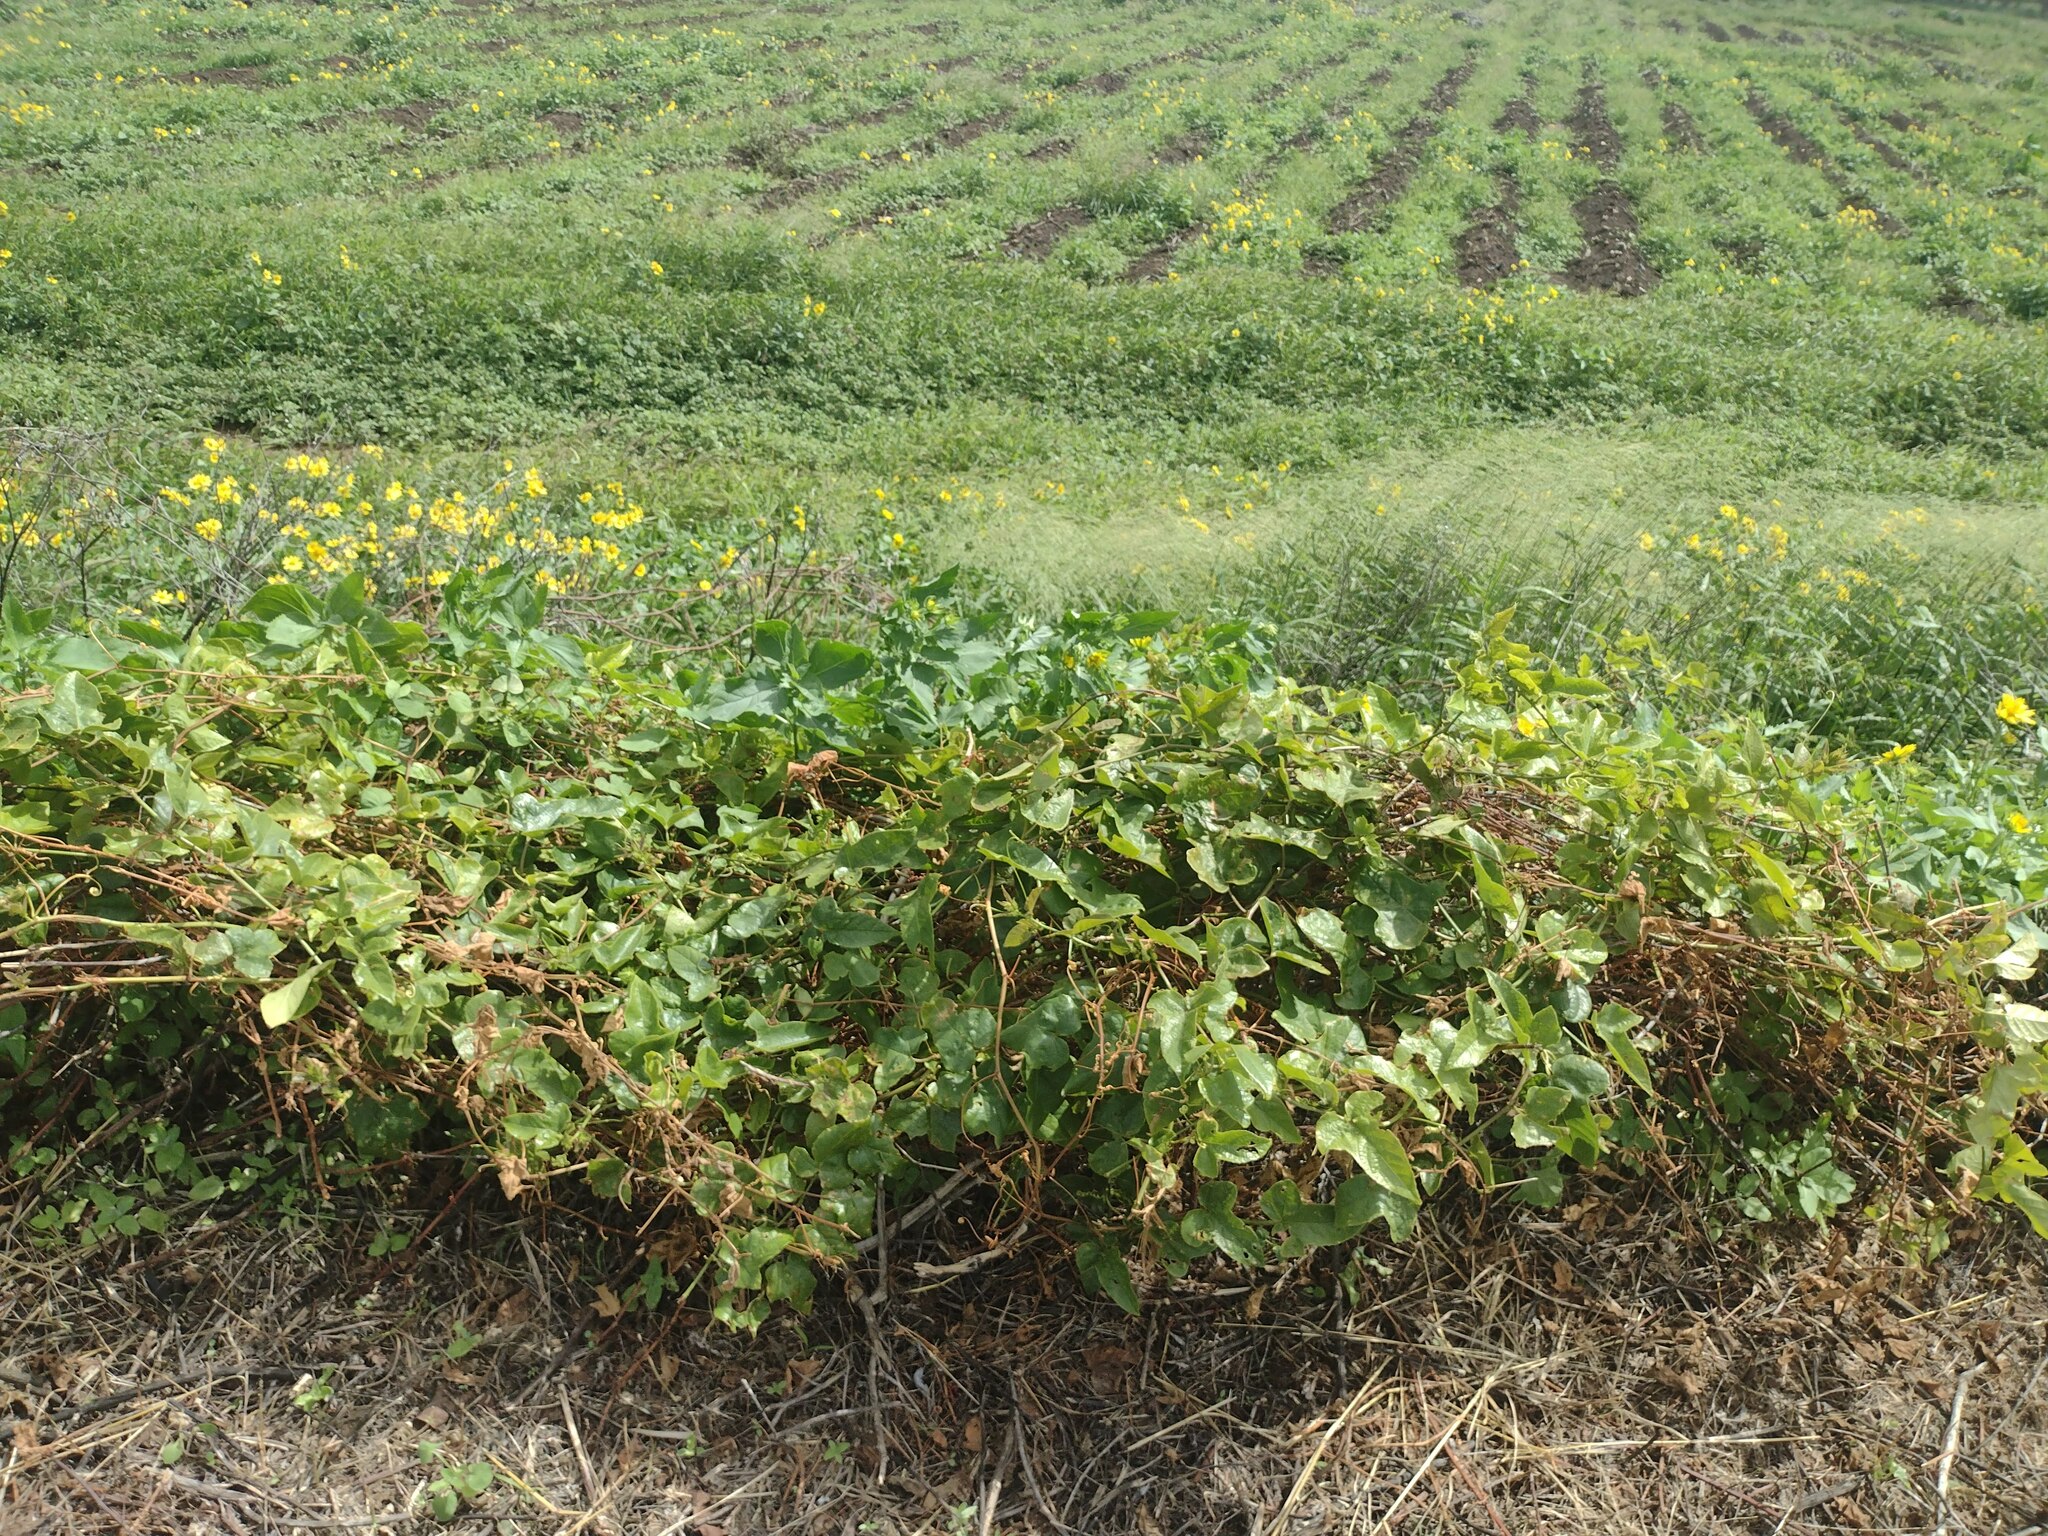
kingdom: Plantae
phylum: Tracheophyta
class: Magnoliopsida
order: Malpighiales
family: Passifloraceae
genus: Passiflora
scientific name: Passiflora foetida
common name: Fetid passionflower
